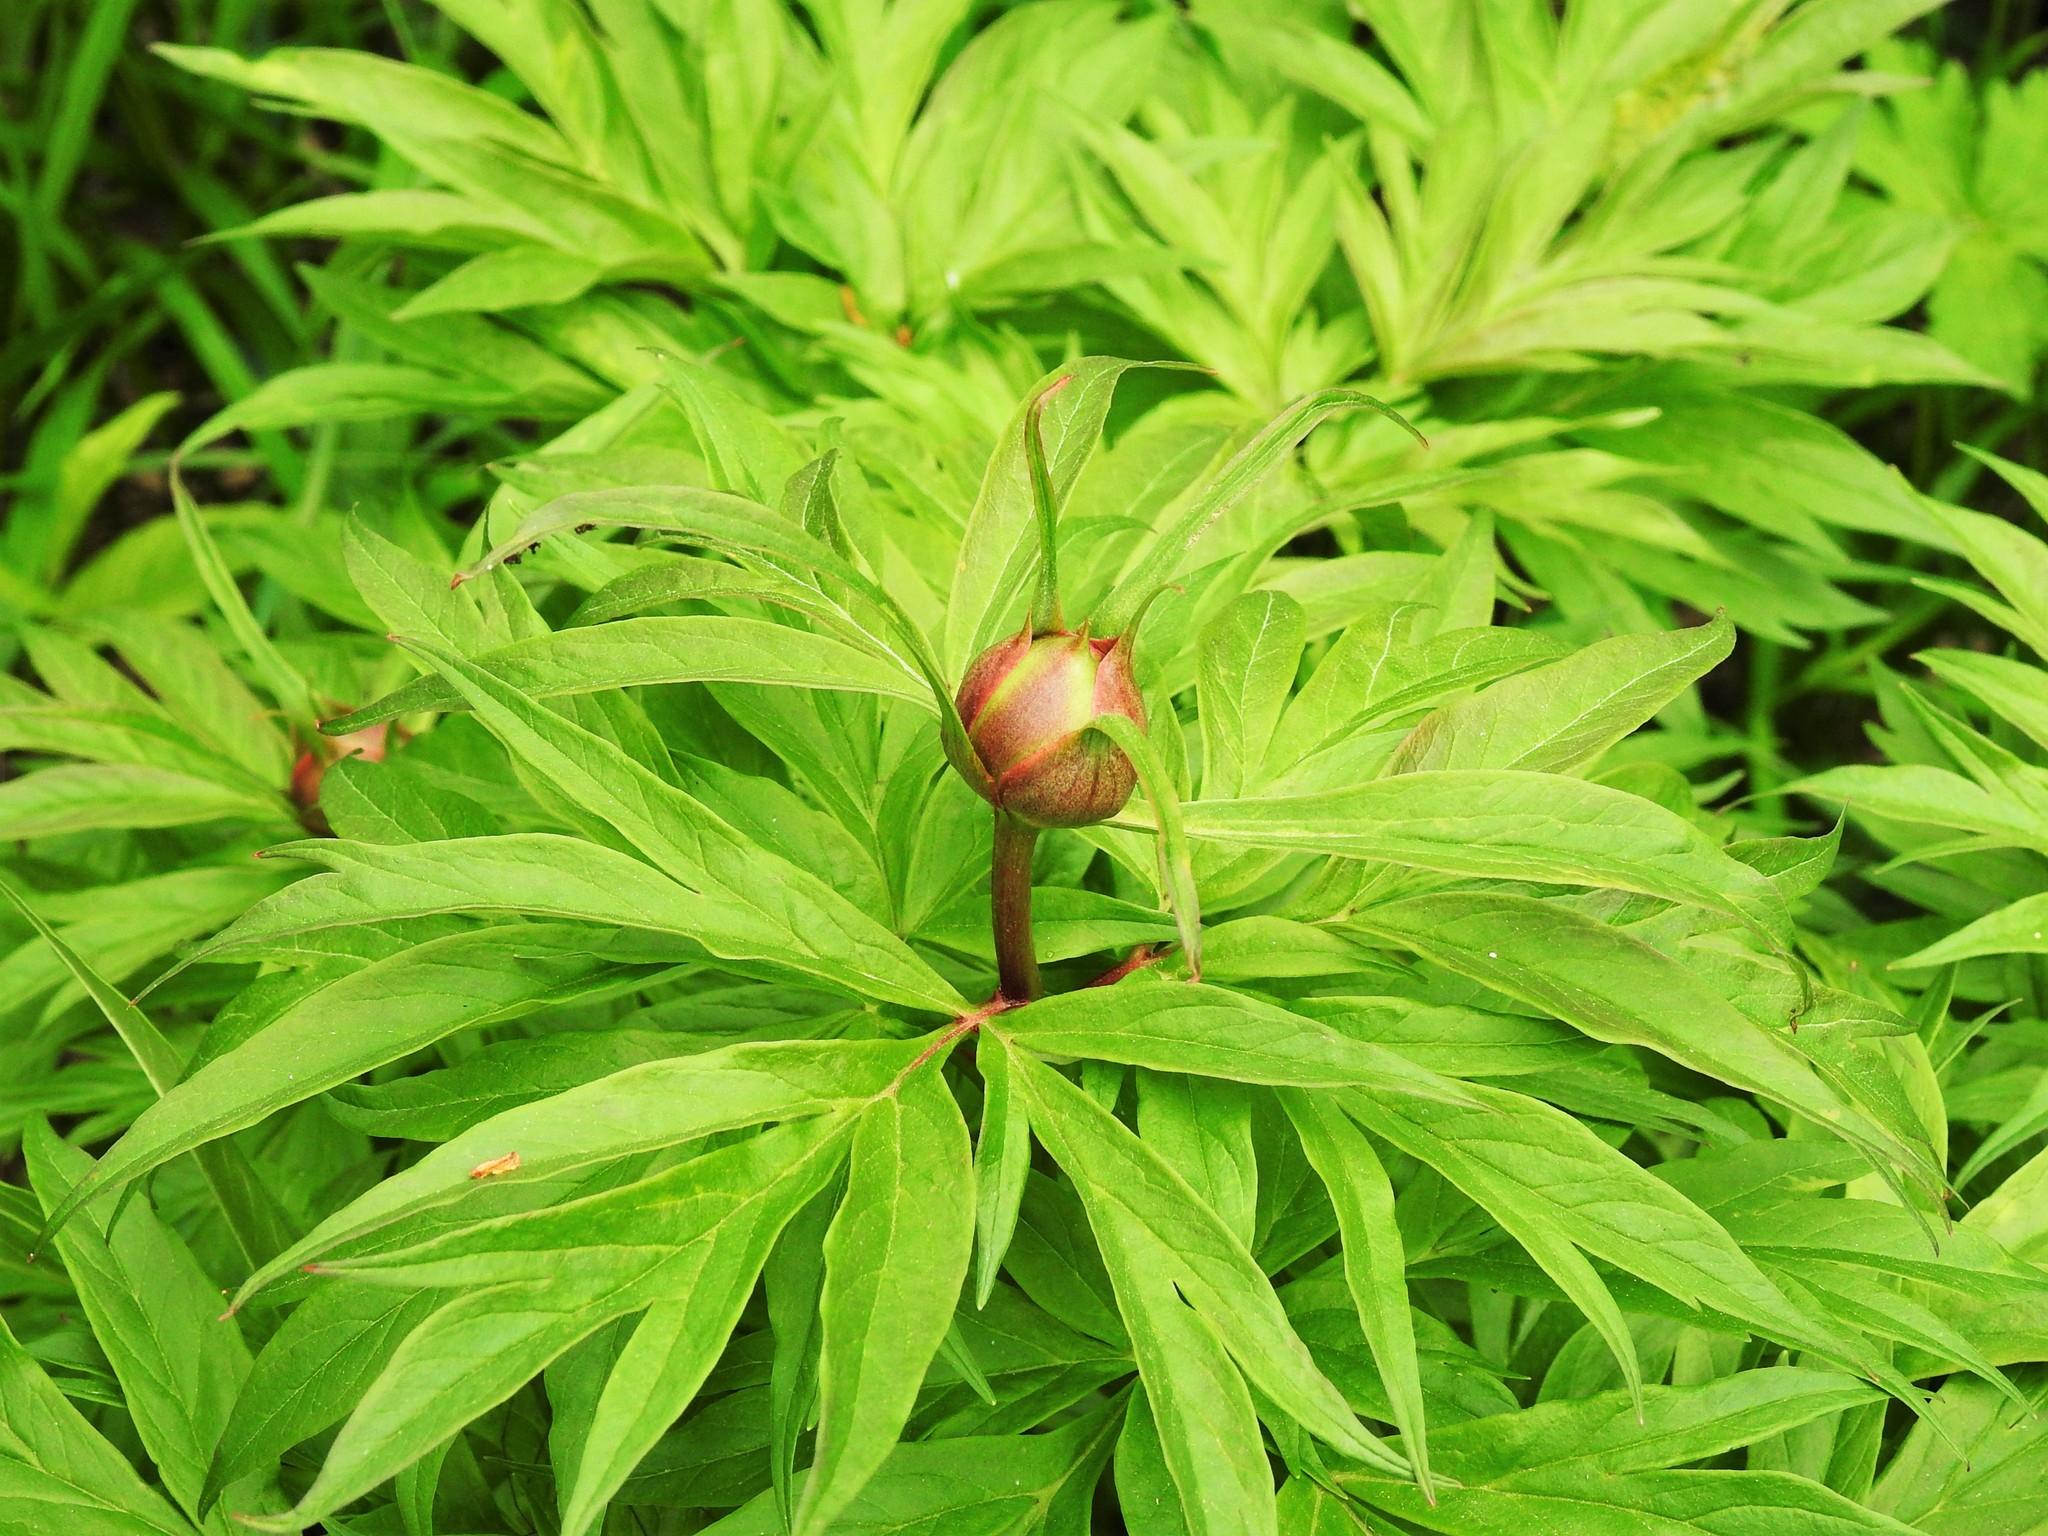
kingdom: Plantae
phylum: Tracheophyta
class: Magnoliopsida
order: Saxifragales
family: Paeoniaceae
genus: Paeonia
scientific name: Paeonia anomala
